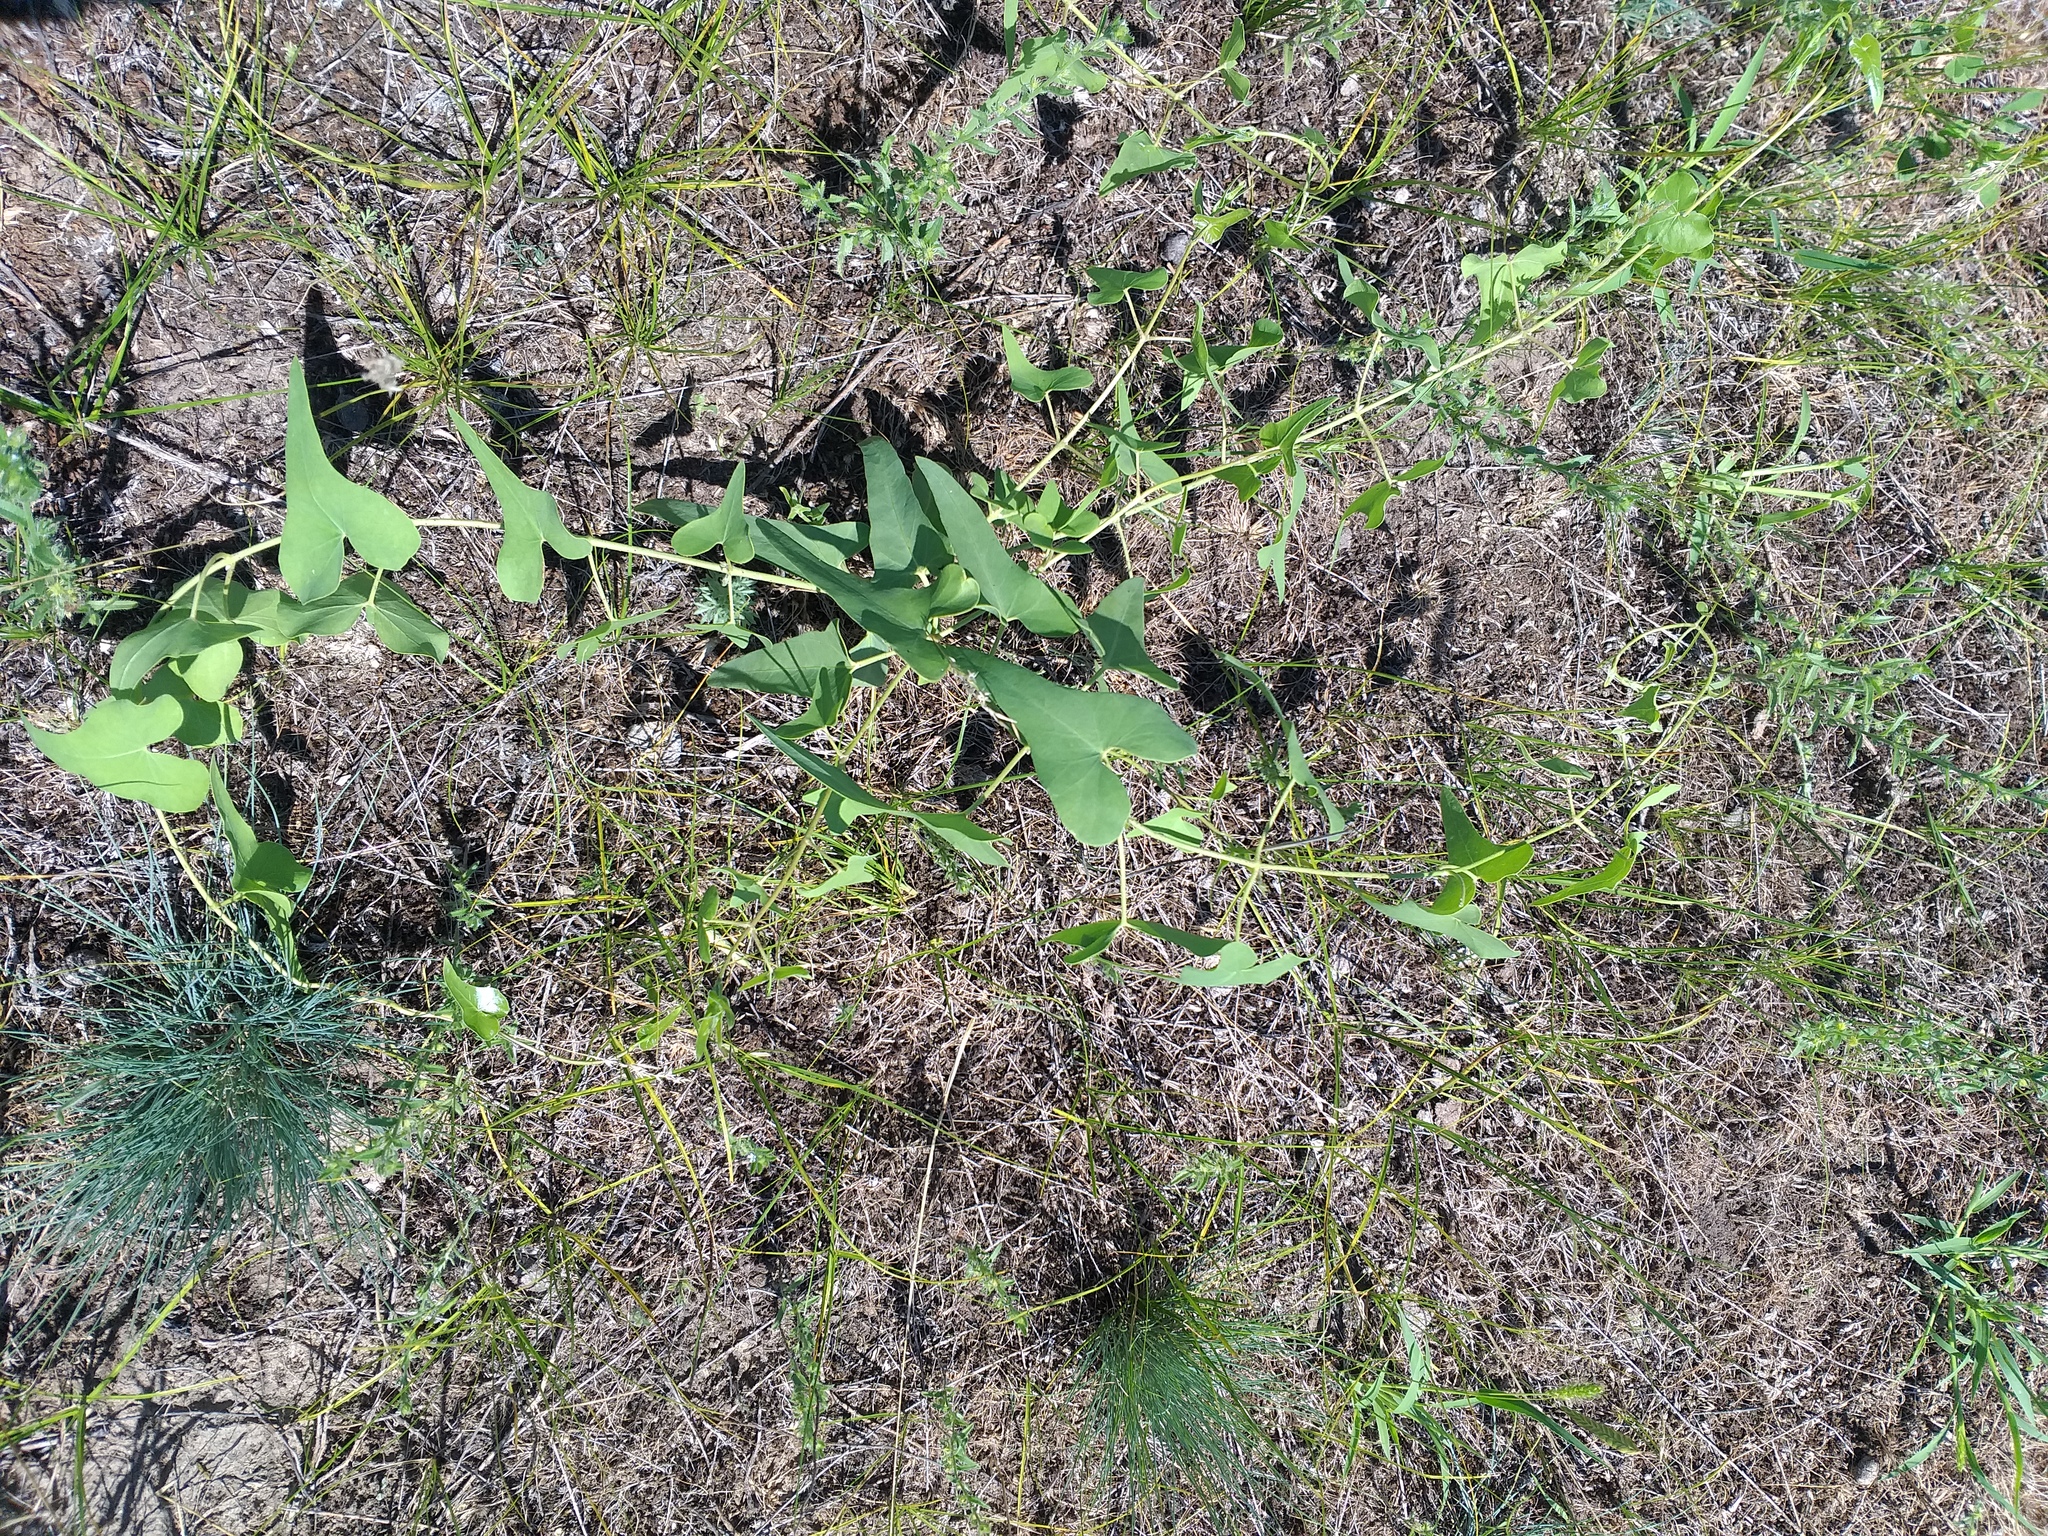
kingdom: Plantae
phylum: Tracheophyta
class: Magnoliopsida
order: Gentianales
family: Apocynaceae
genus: Cynanchum
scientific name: Cynanchum acutum
